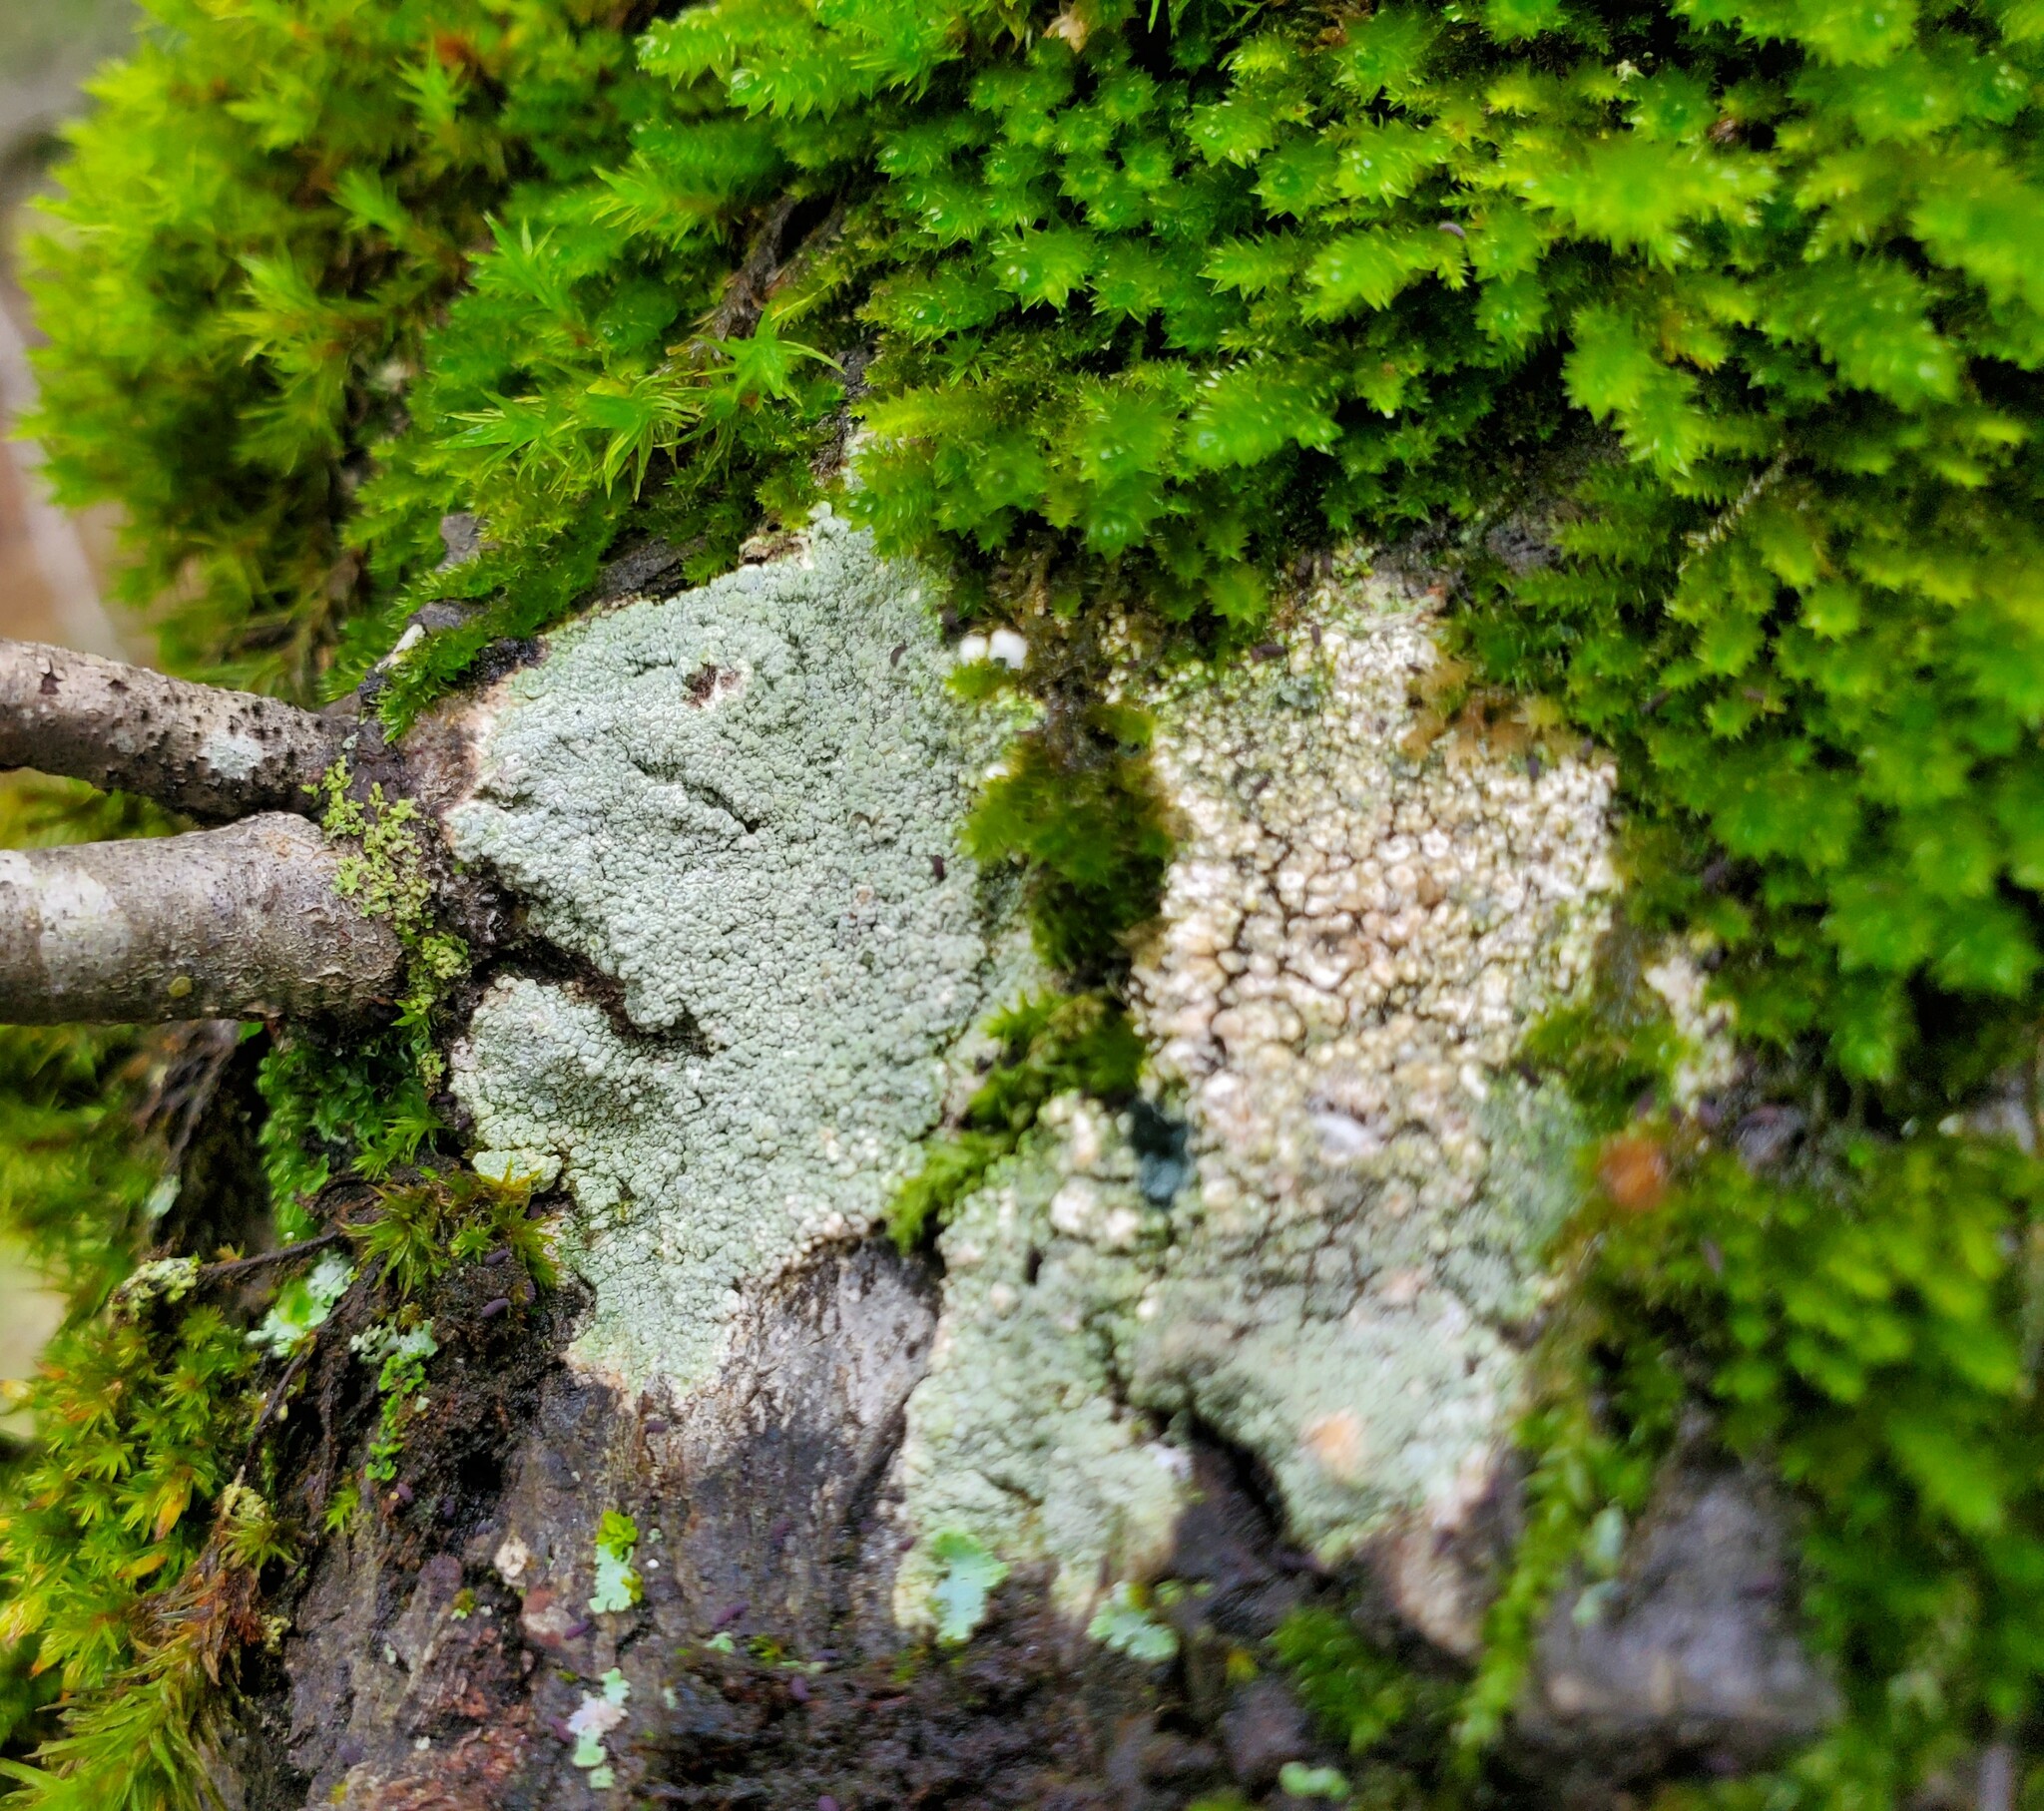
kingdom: Fungi
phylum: Ascomycota
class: Lecanoromycetes
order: Pertusariales
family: Pertusariaceae
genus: Lepra
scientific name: Lepra amara
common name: Bitter wart lichen
